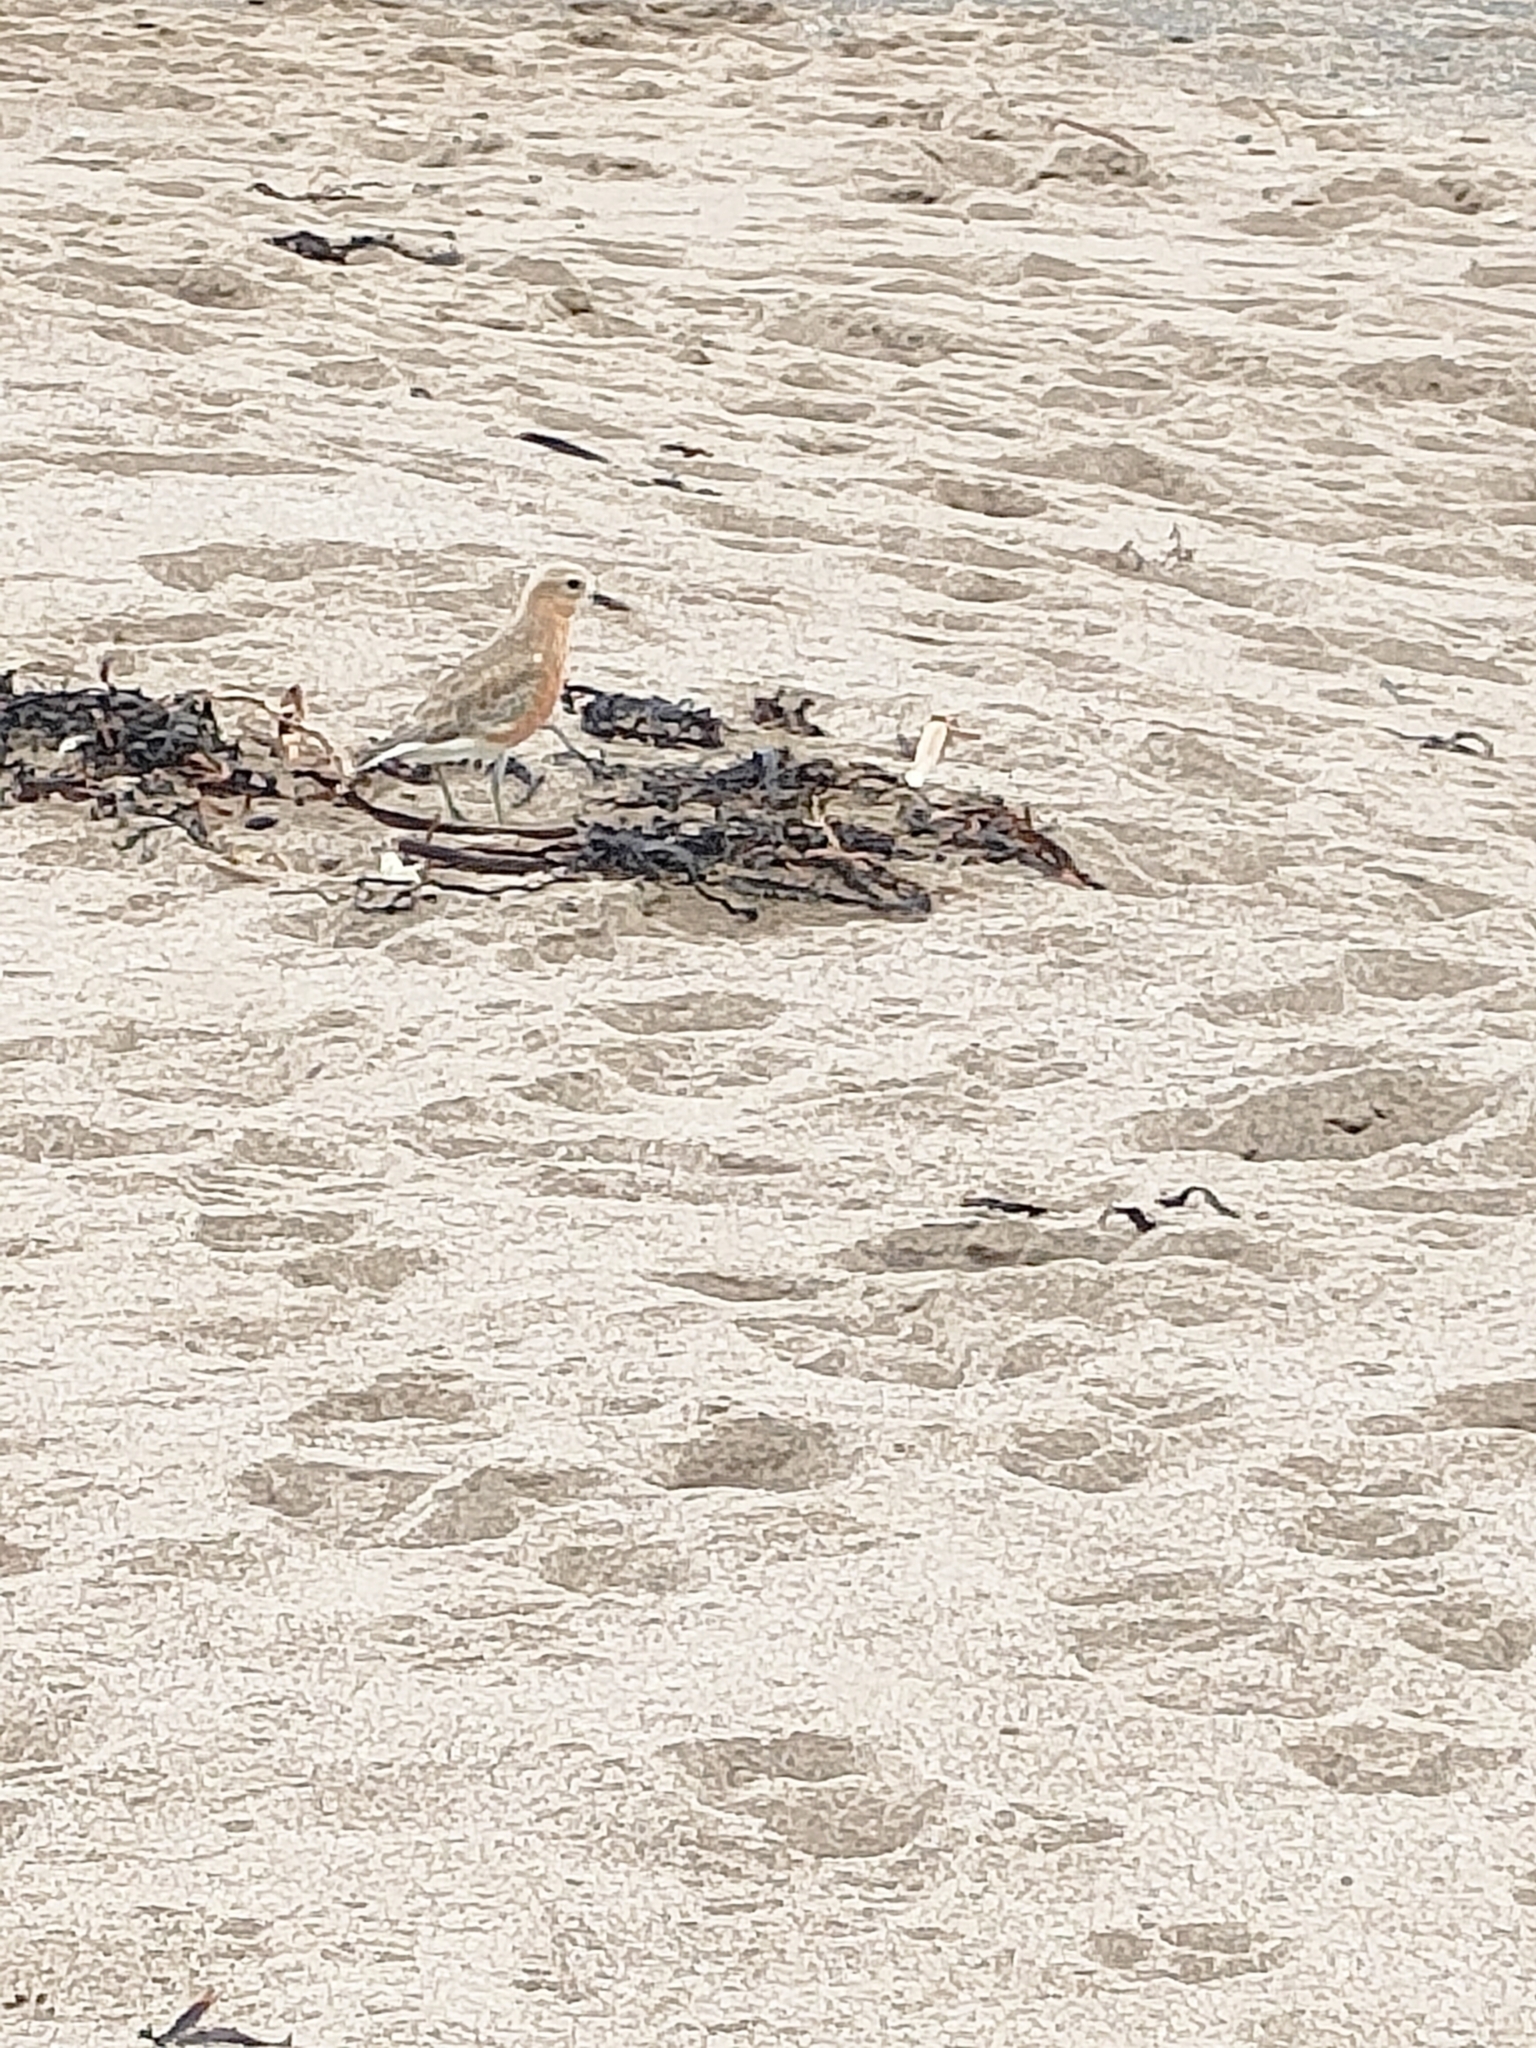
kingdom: Animalia
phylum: Chordata
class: Aves
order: Charadriiformes
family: Charadriidae
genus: Anarhynchus
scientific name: Anarhynchus
